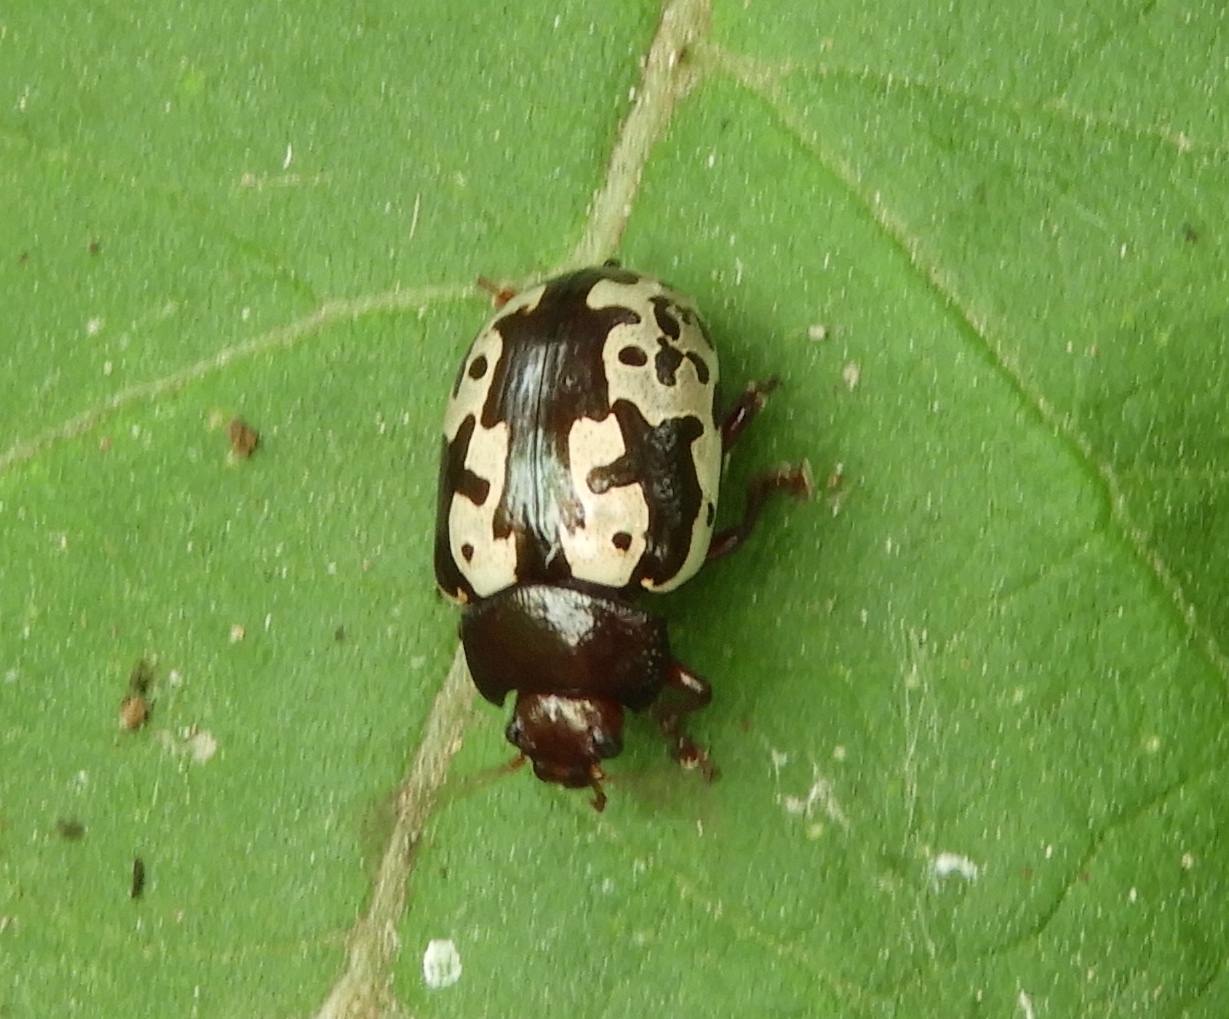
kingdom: Animalia
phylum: Arthropoda
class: Insecta
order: Coleoptera
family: Chrysomelidae
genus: Calligrapha
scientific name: Calligrapha intermedia
